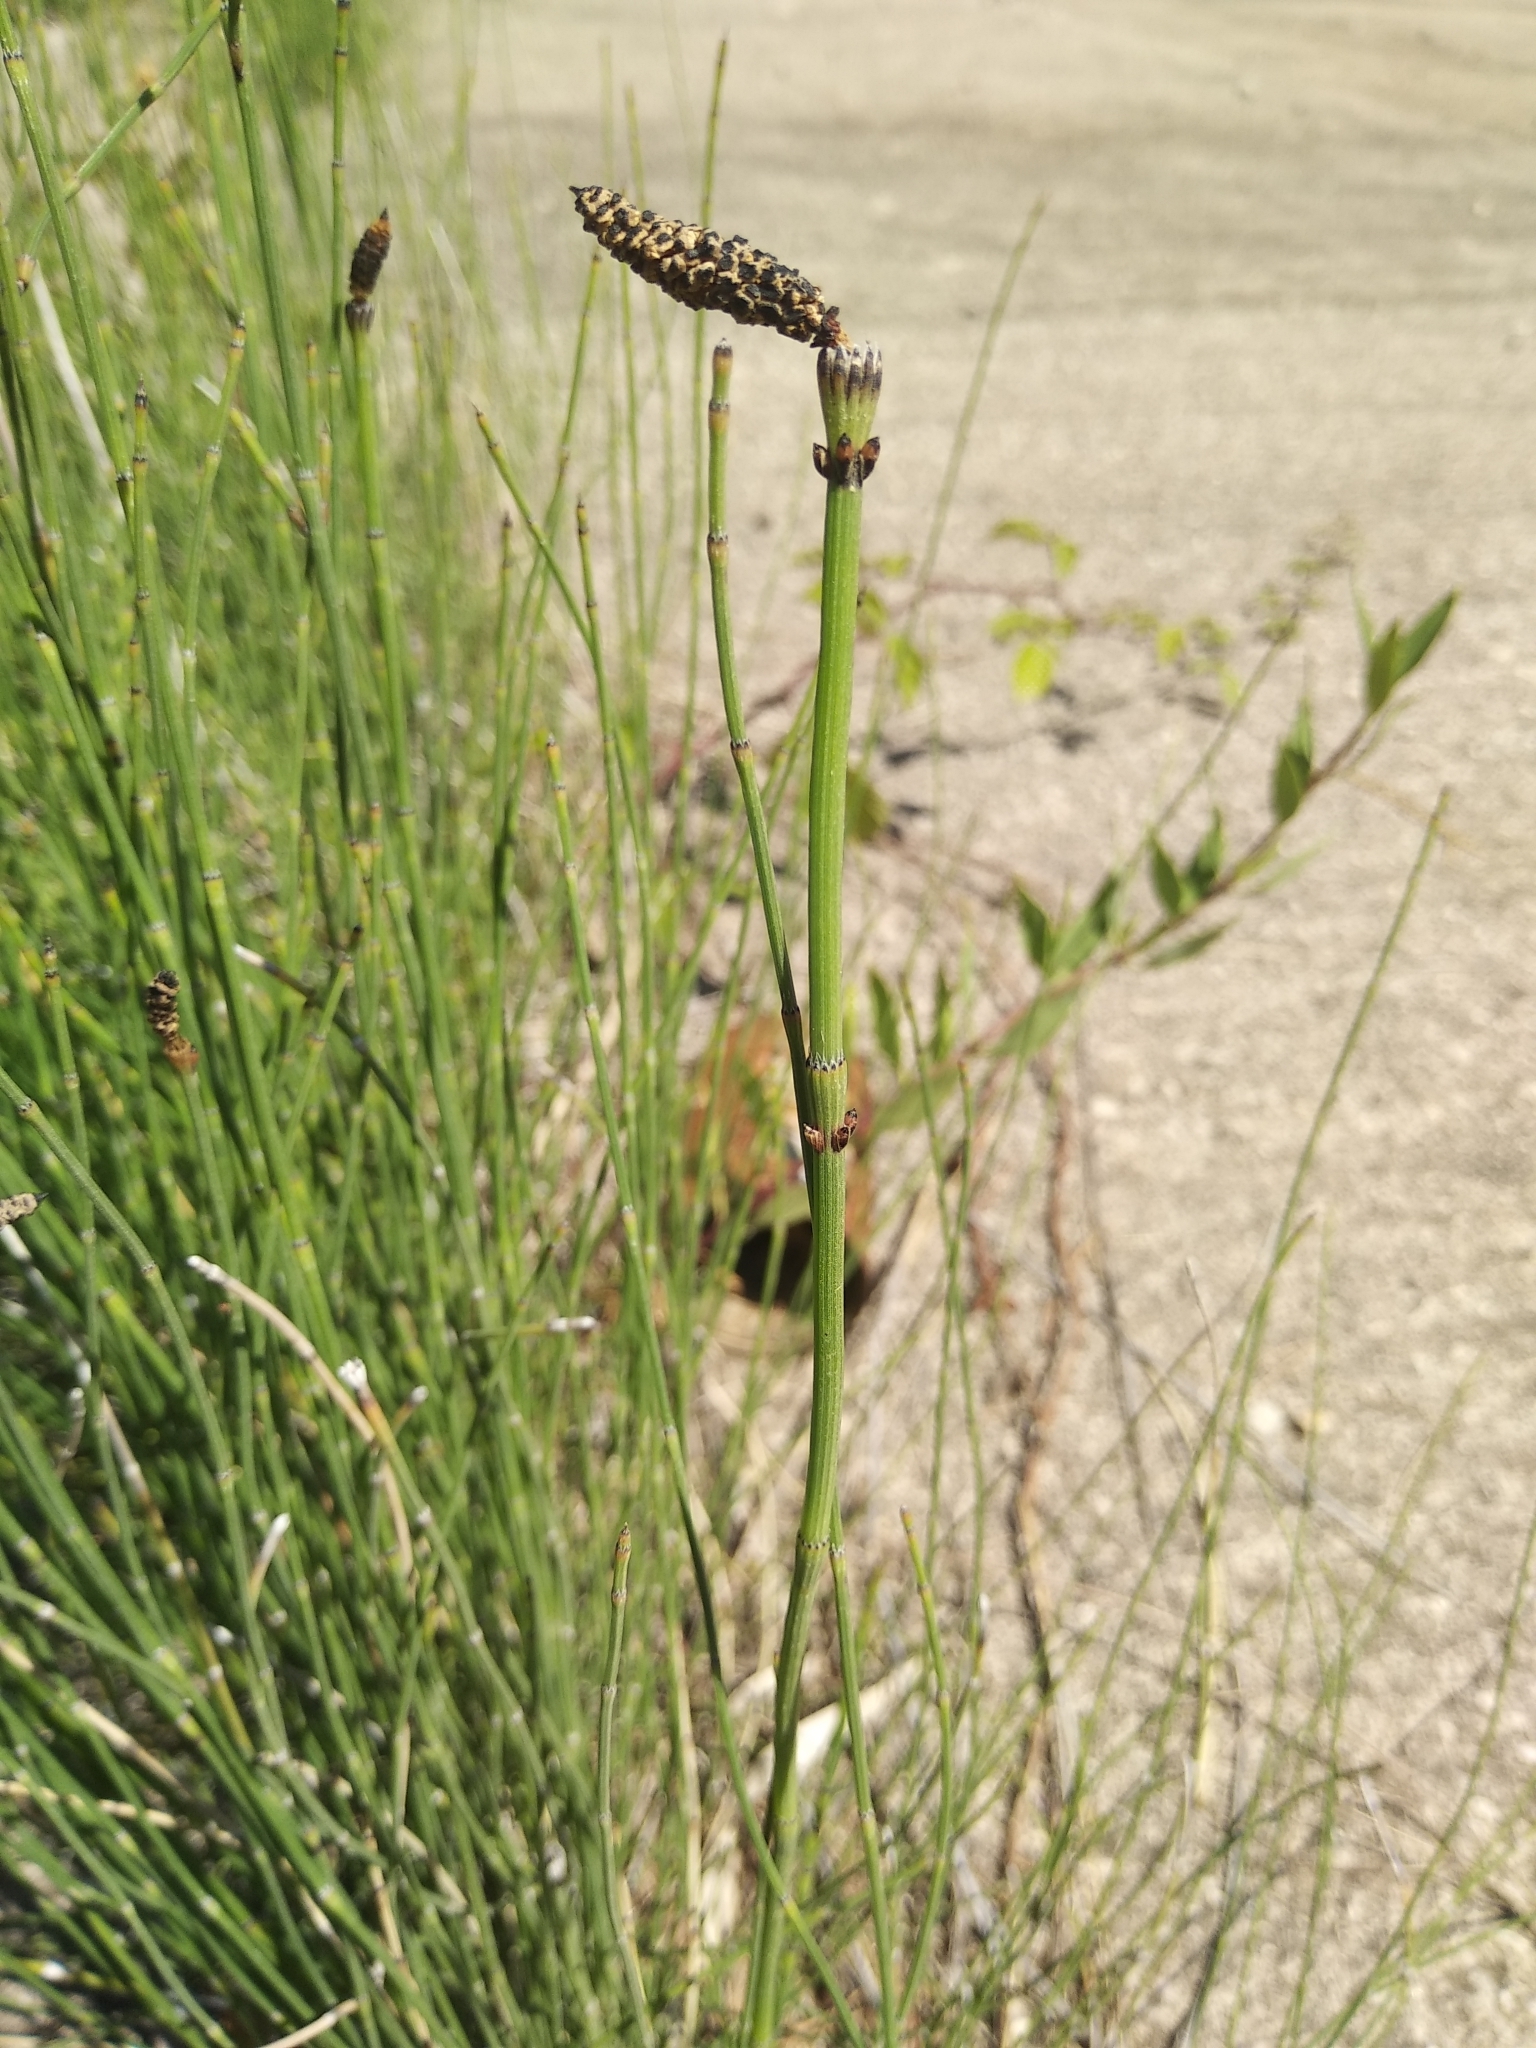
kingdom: Plantae
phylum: Tracheophyta
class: Polypodiopsida
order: Equisetales
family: Equisetaceae
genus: Equisetum
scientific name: Equisetum ramosissimum
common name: Branched horsetail
